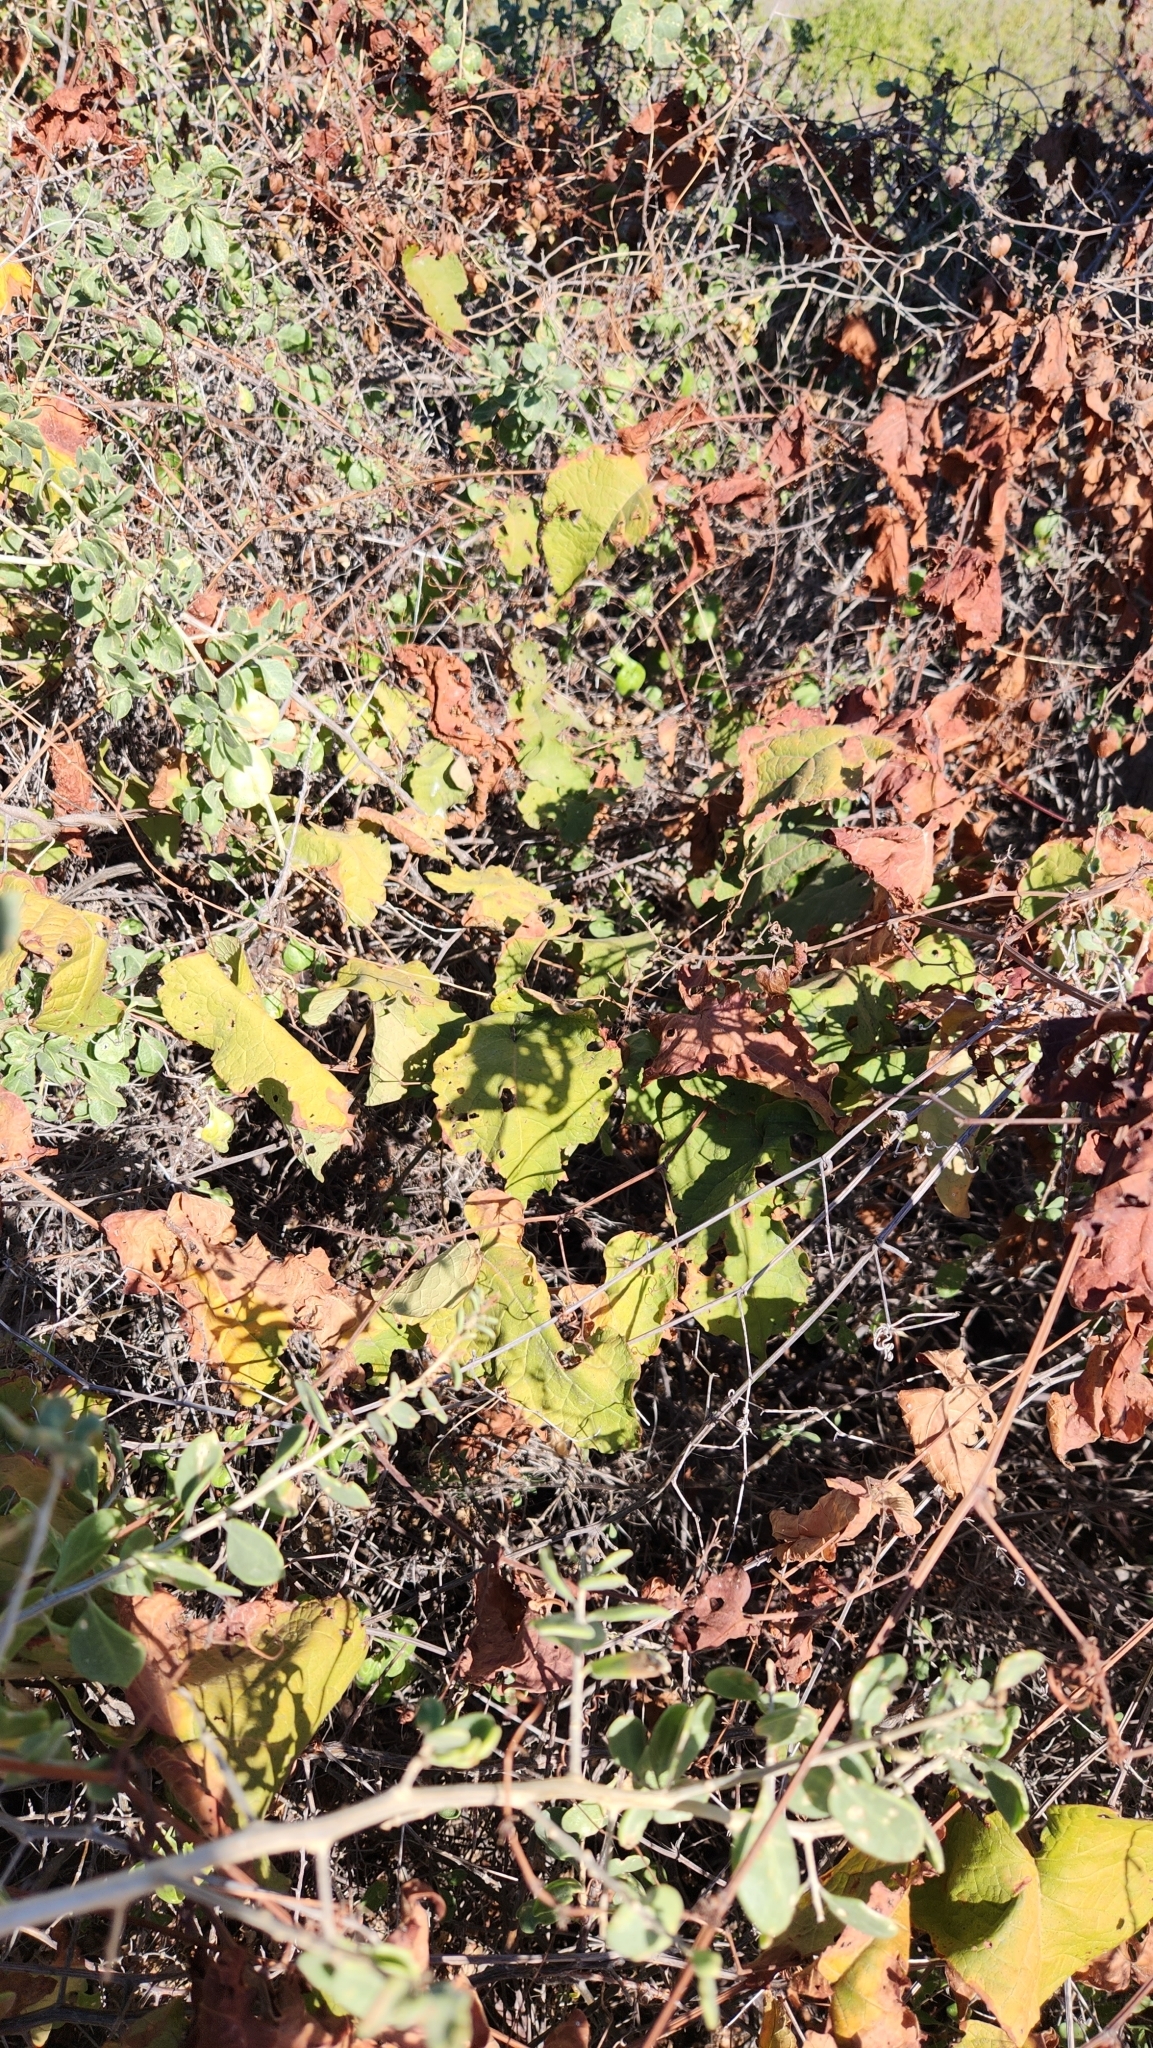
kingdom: Plantae
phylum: Tracheophyta
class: Magnoliopsida
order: Caryophyllales
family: Polygonaceae
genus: Antigonon
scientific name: Antigonon leptopus
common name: Coral vine
